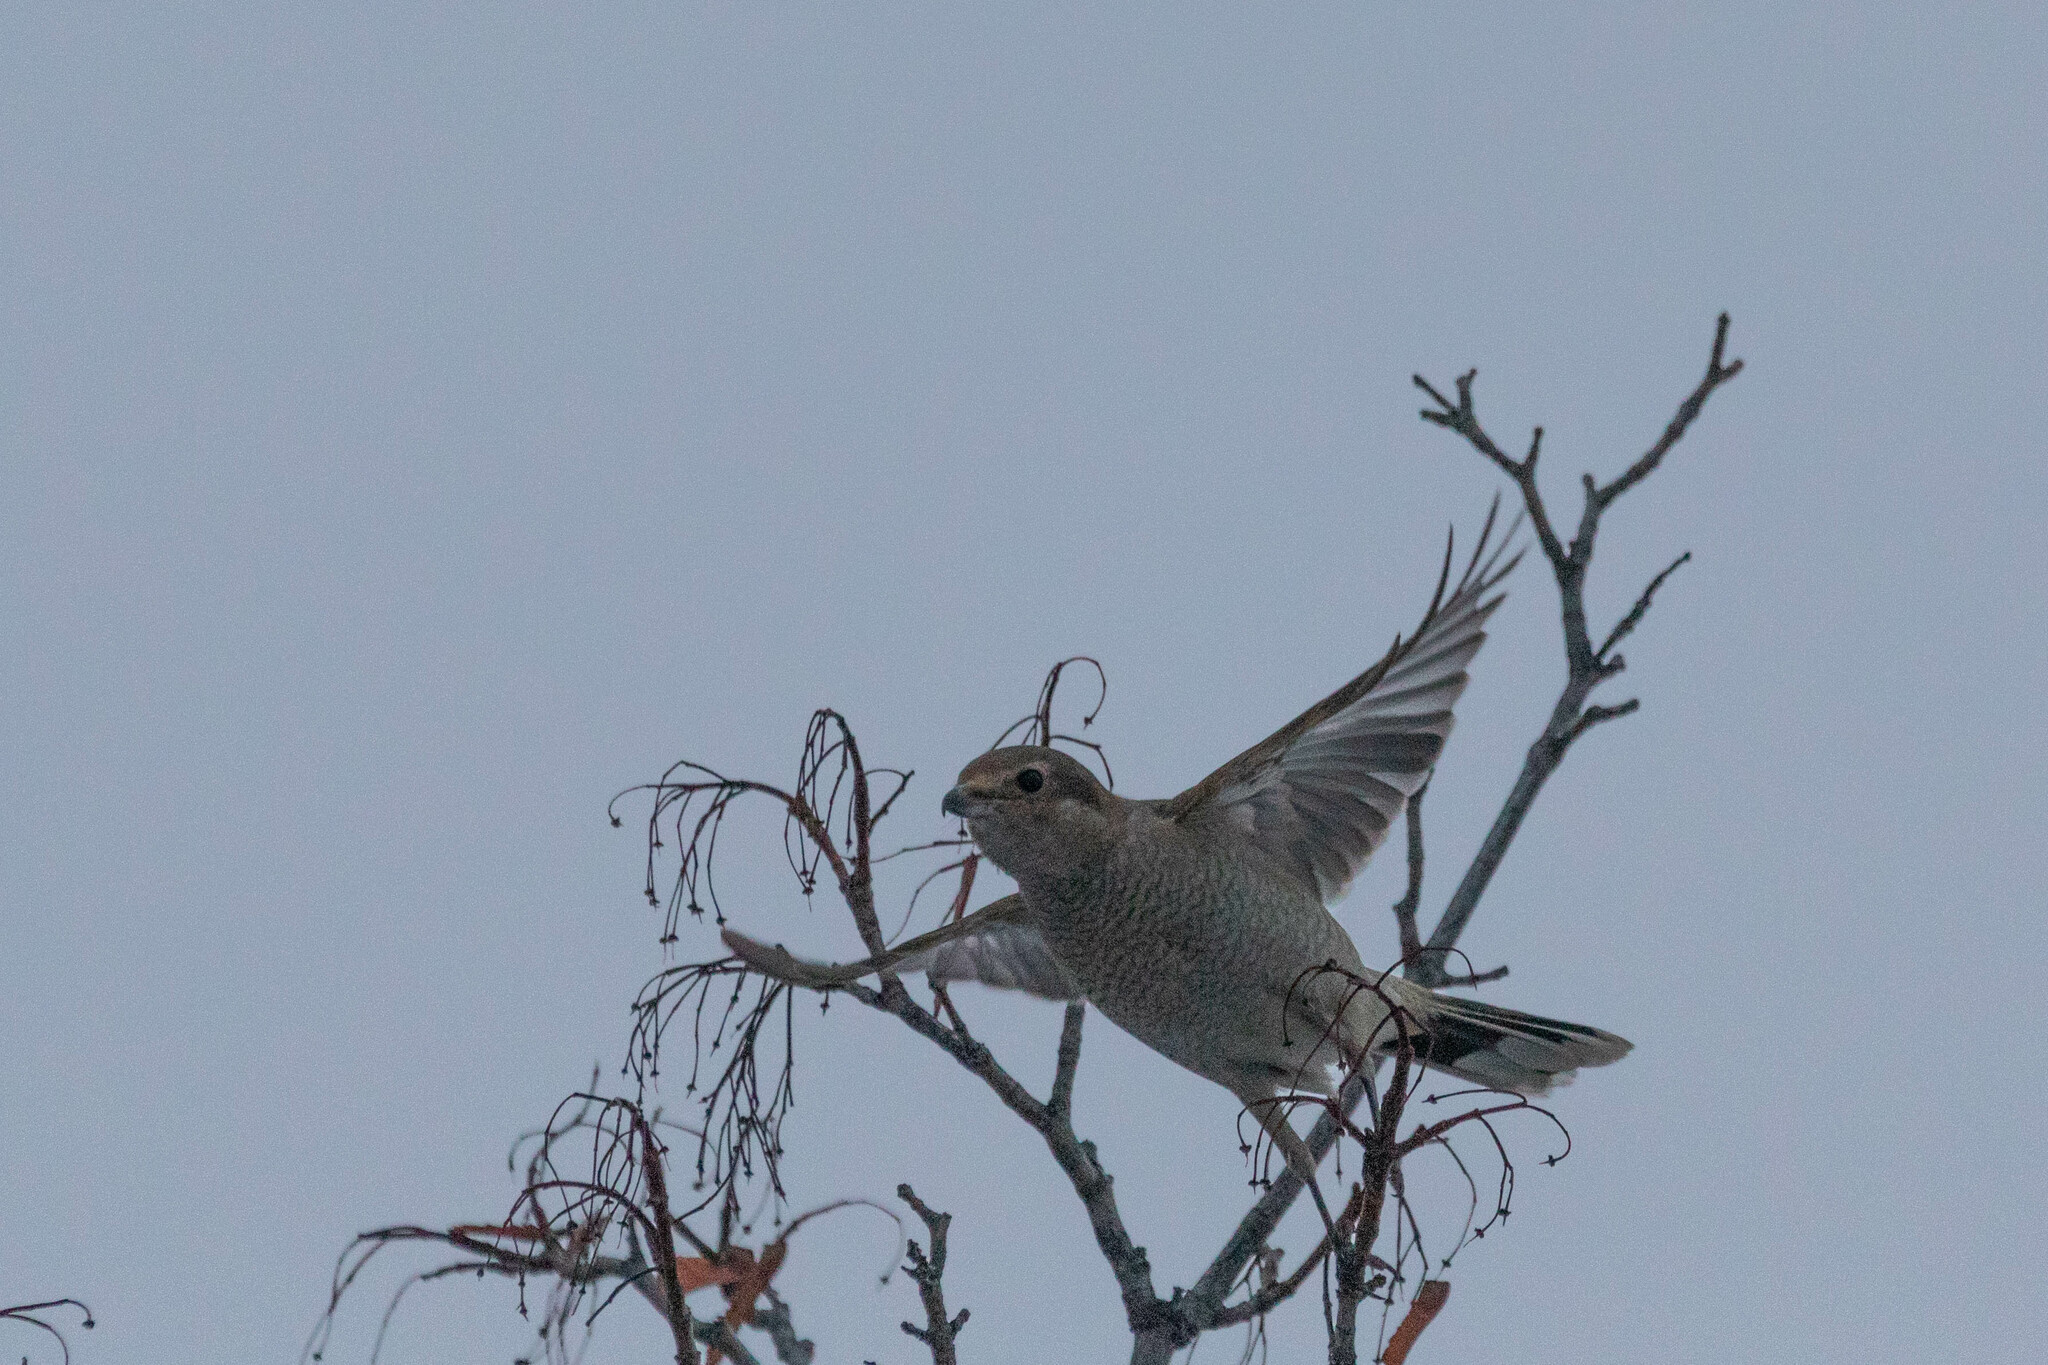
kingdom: Animalia
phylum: Chordata
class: Aves
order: Passeriformes
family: Laniidae
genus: Lanius
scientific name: Lanius borealis
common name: Northern shrike
